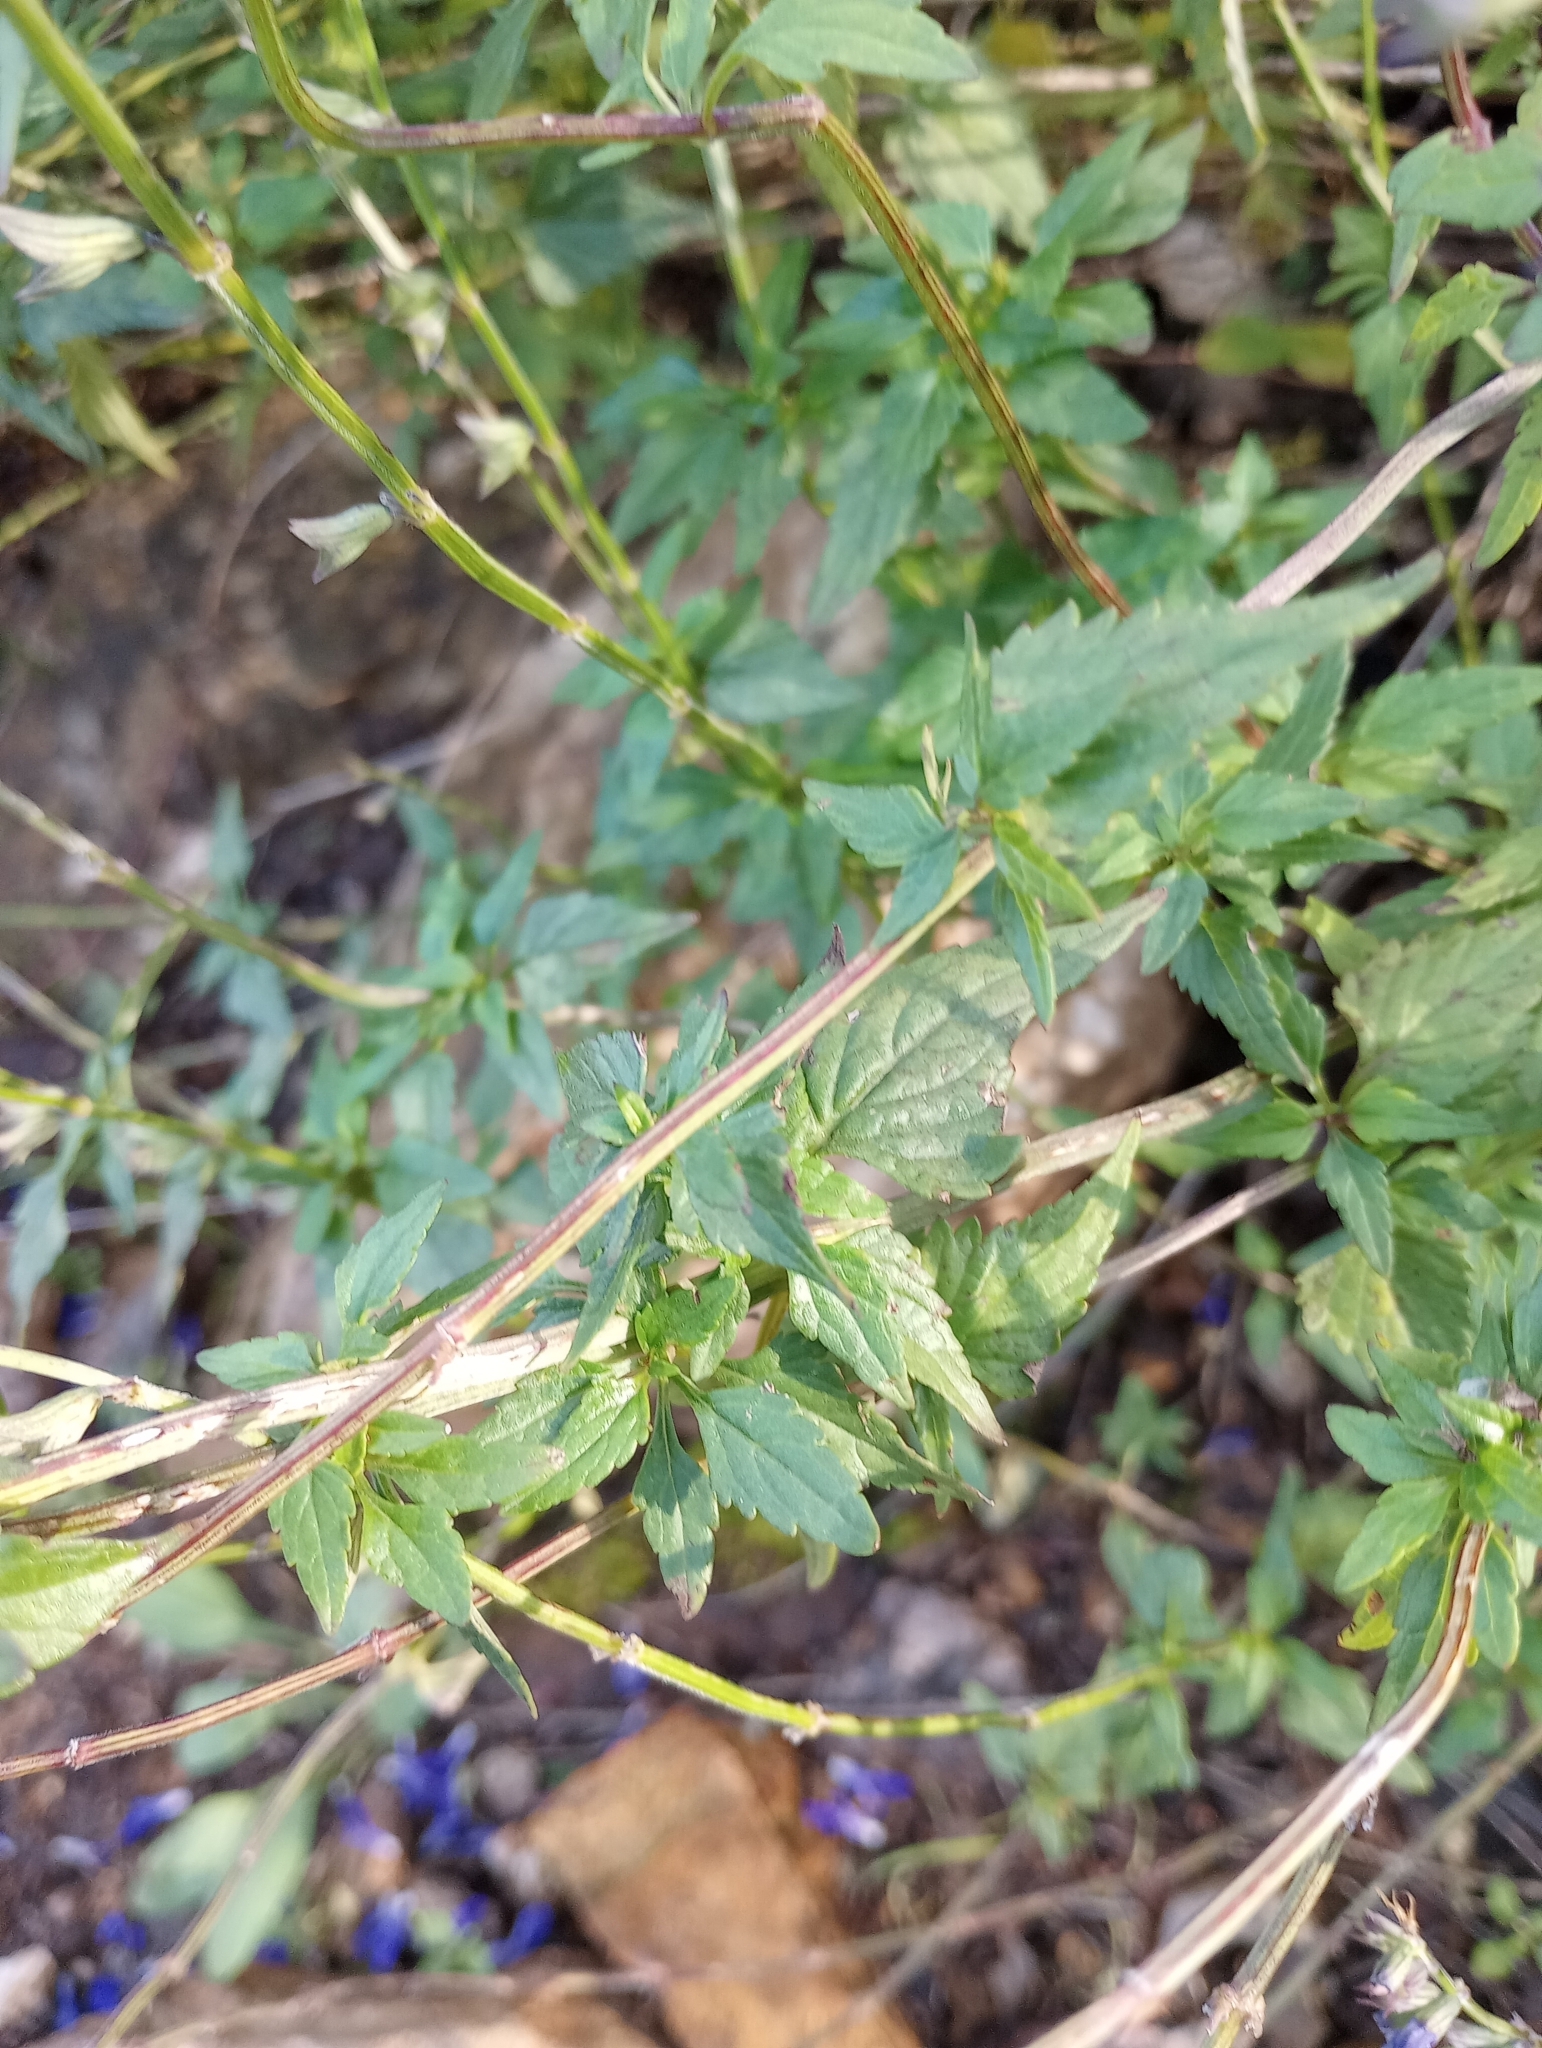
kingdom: Plantae
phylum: Tracheophyta
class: Magnoliopsida
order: Lamiales
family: Lamiaceae
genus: Salvia
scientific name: Salvia arizonica
